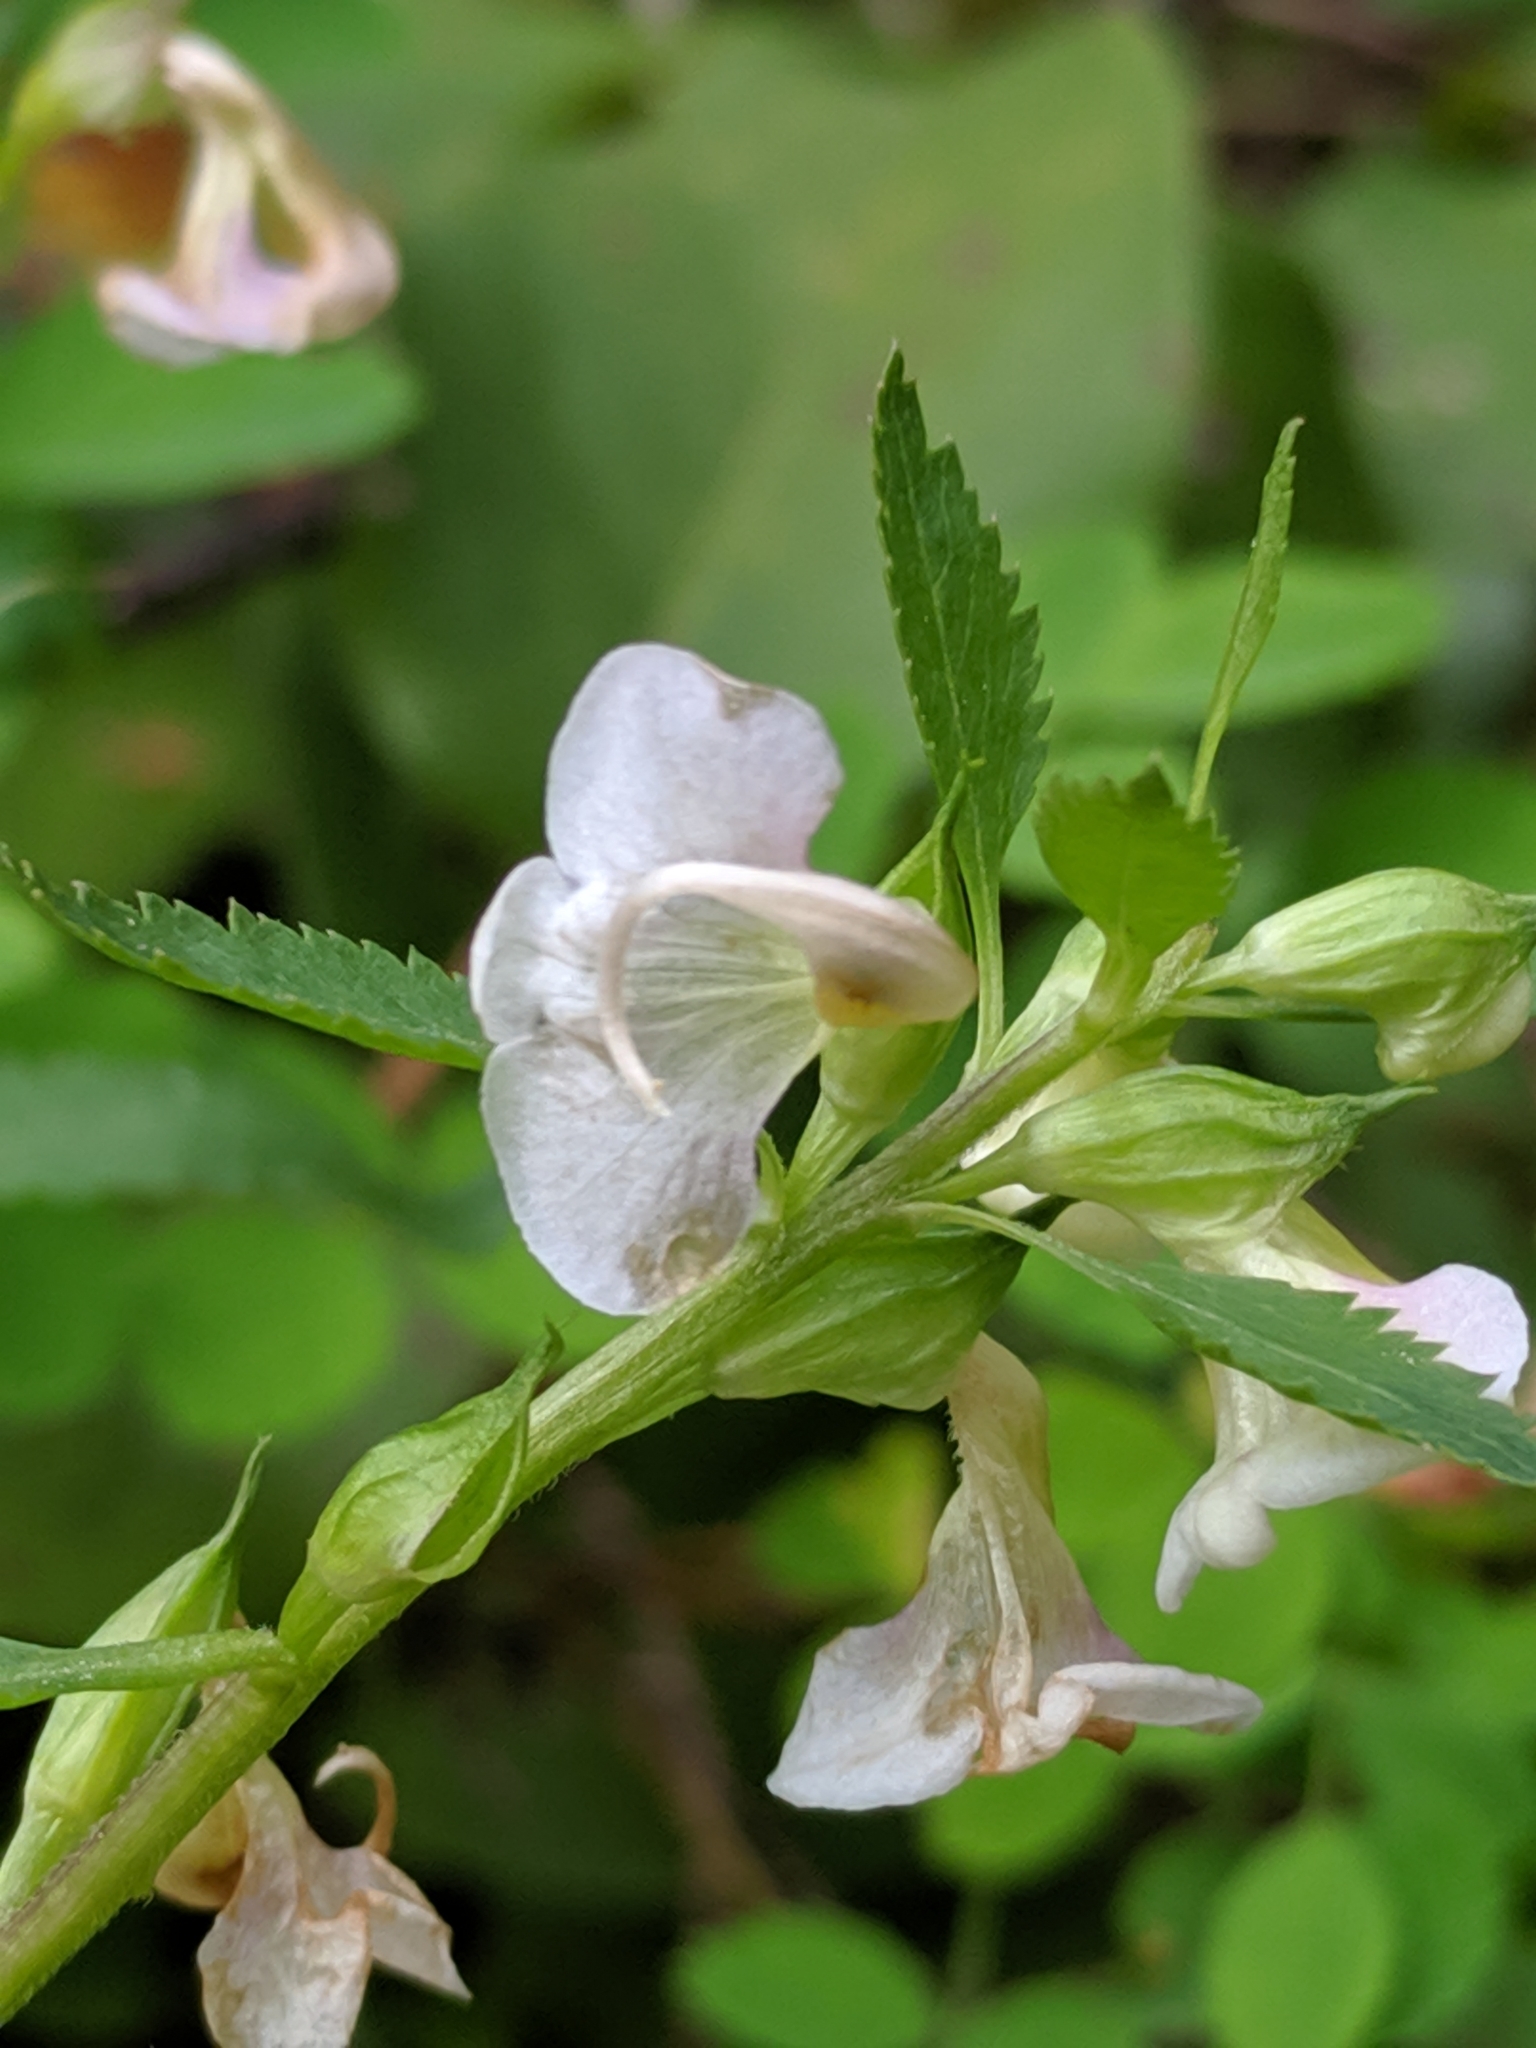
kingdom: Plantae
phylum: Tracheophyta
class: Magnoliopsida
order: Lamiales
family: Orobanchaceae
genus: Pedicularis
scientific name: Pedicularis racemosa
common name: Leafy lousewort
